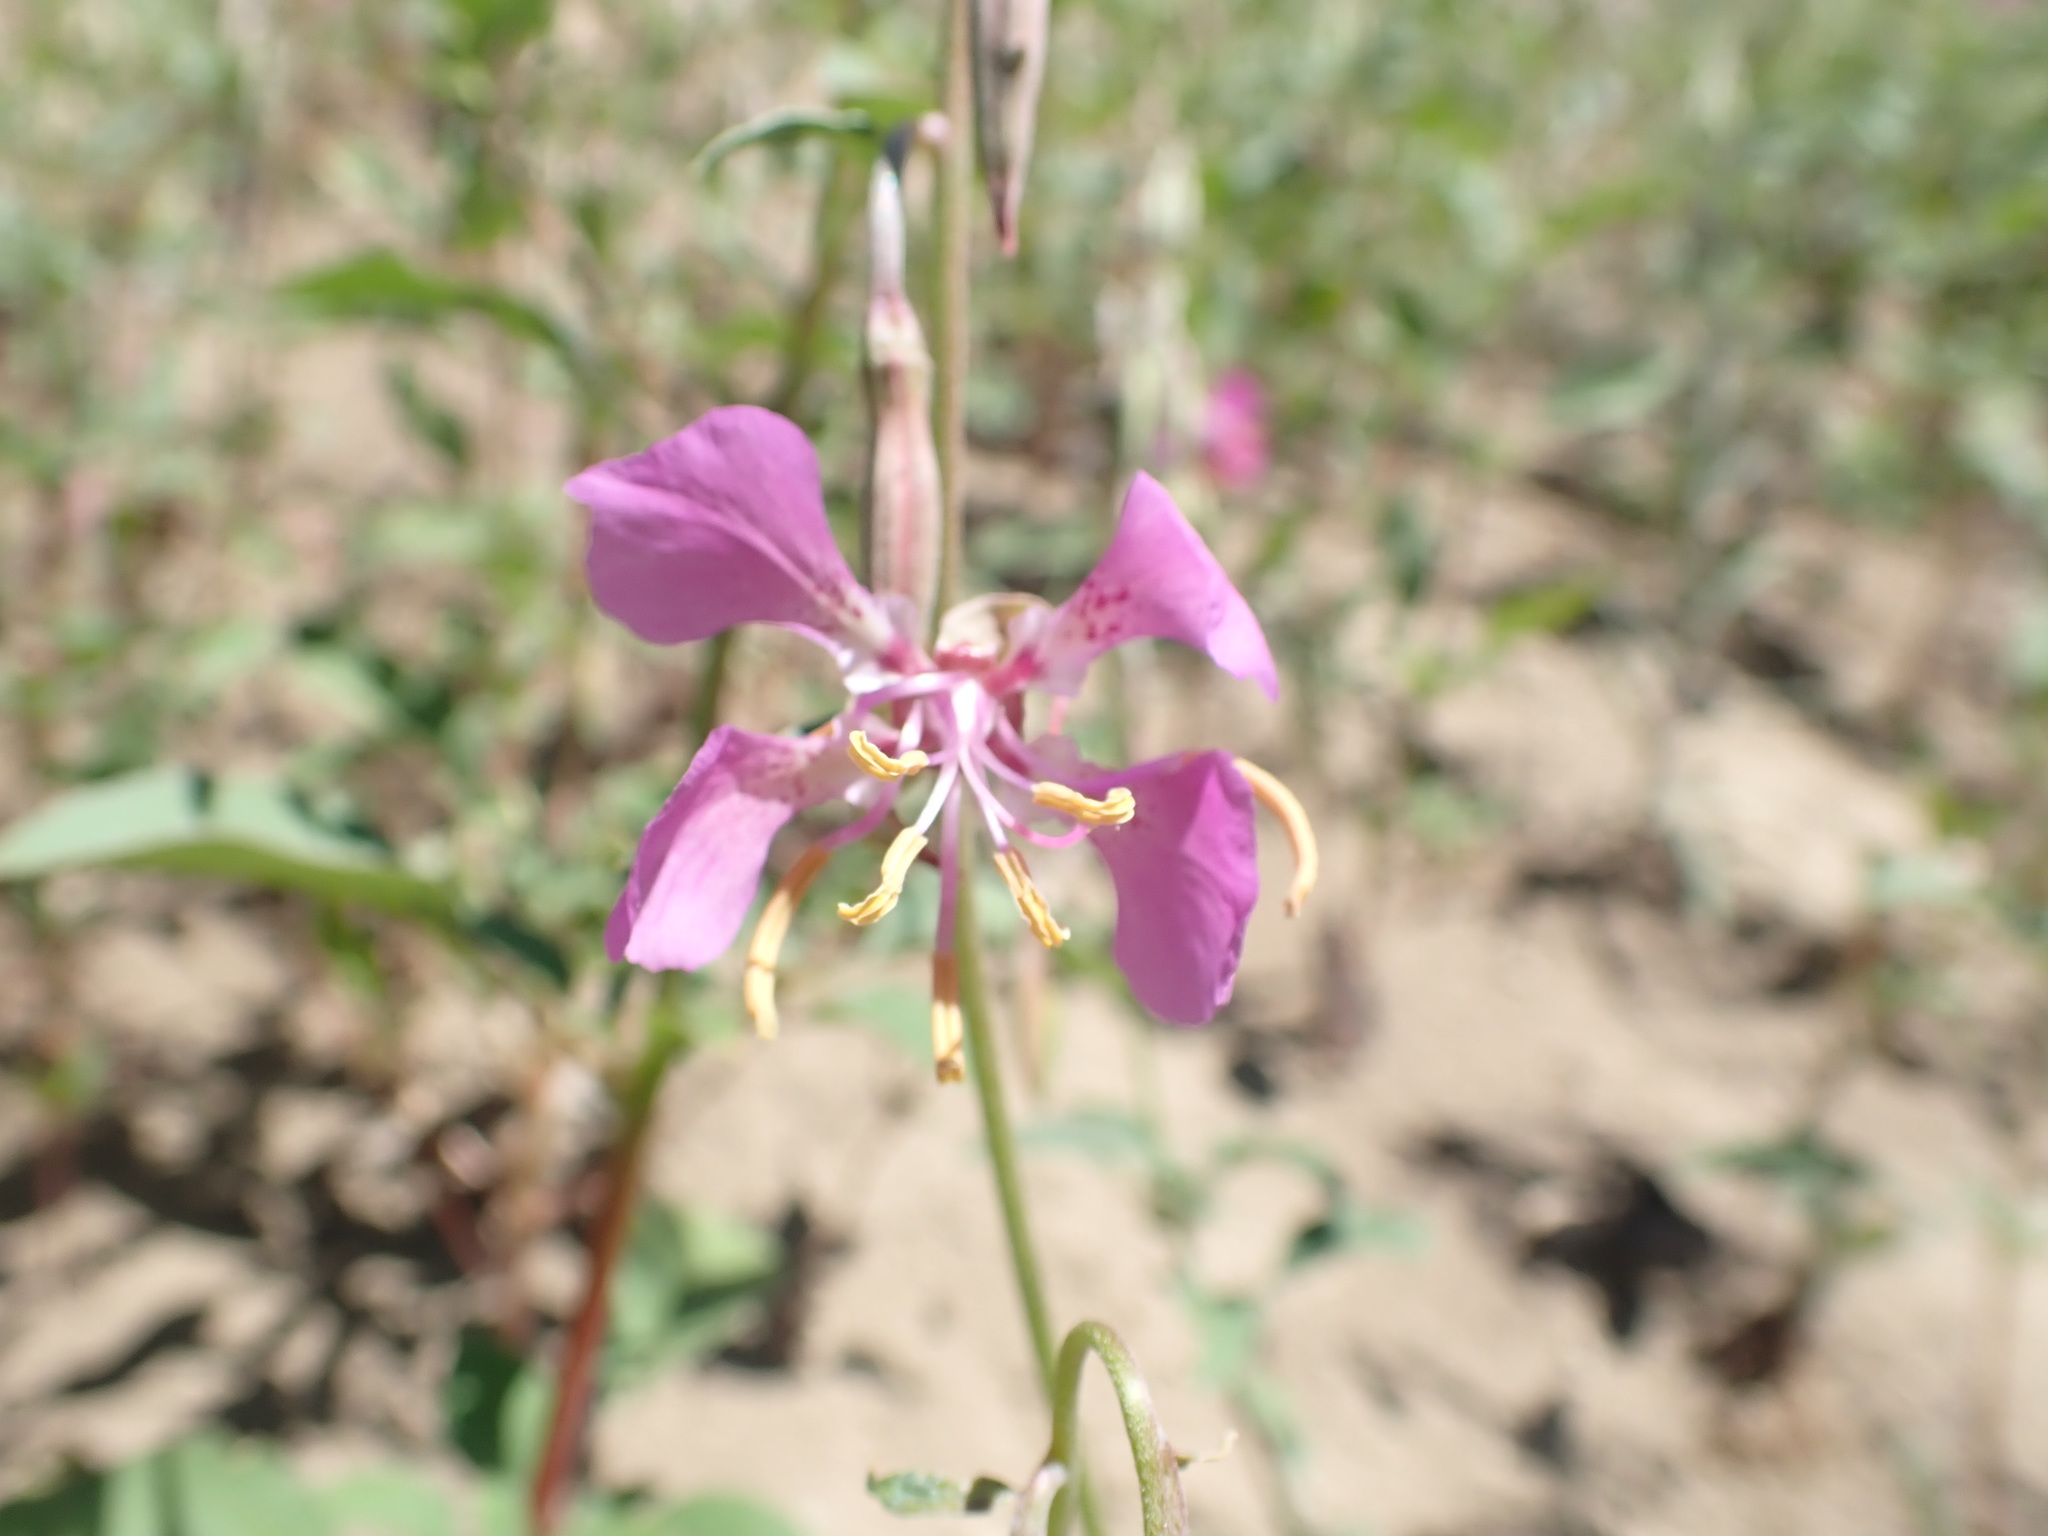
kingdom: Plantae
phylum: Tracheophyta
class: Magnoliopsida
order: Myrtales
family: Onagraceae
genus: Clarkia
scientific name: Clarkia mildrediae
